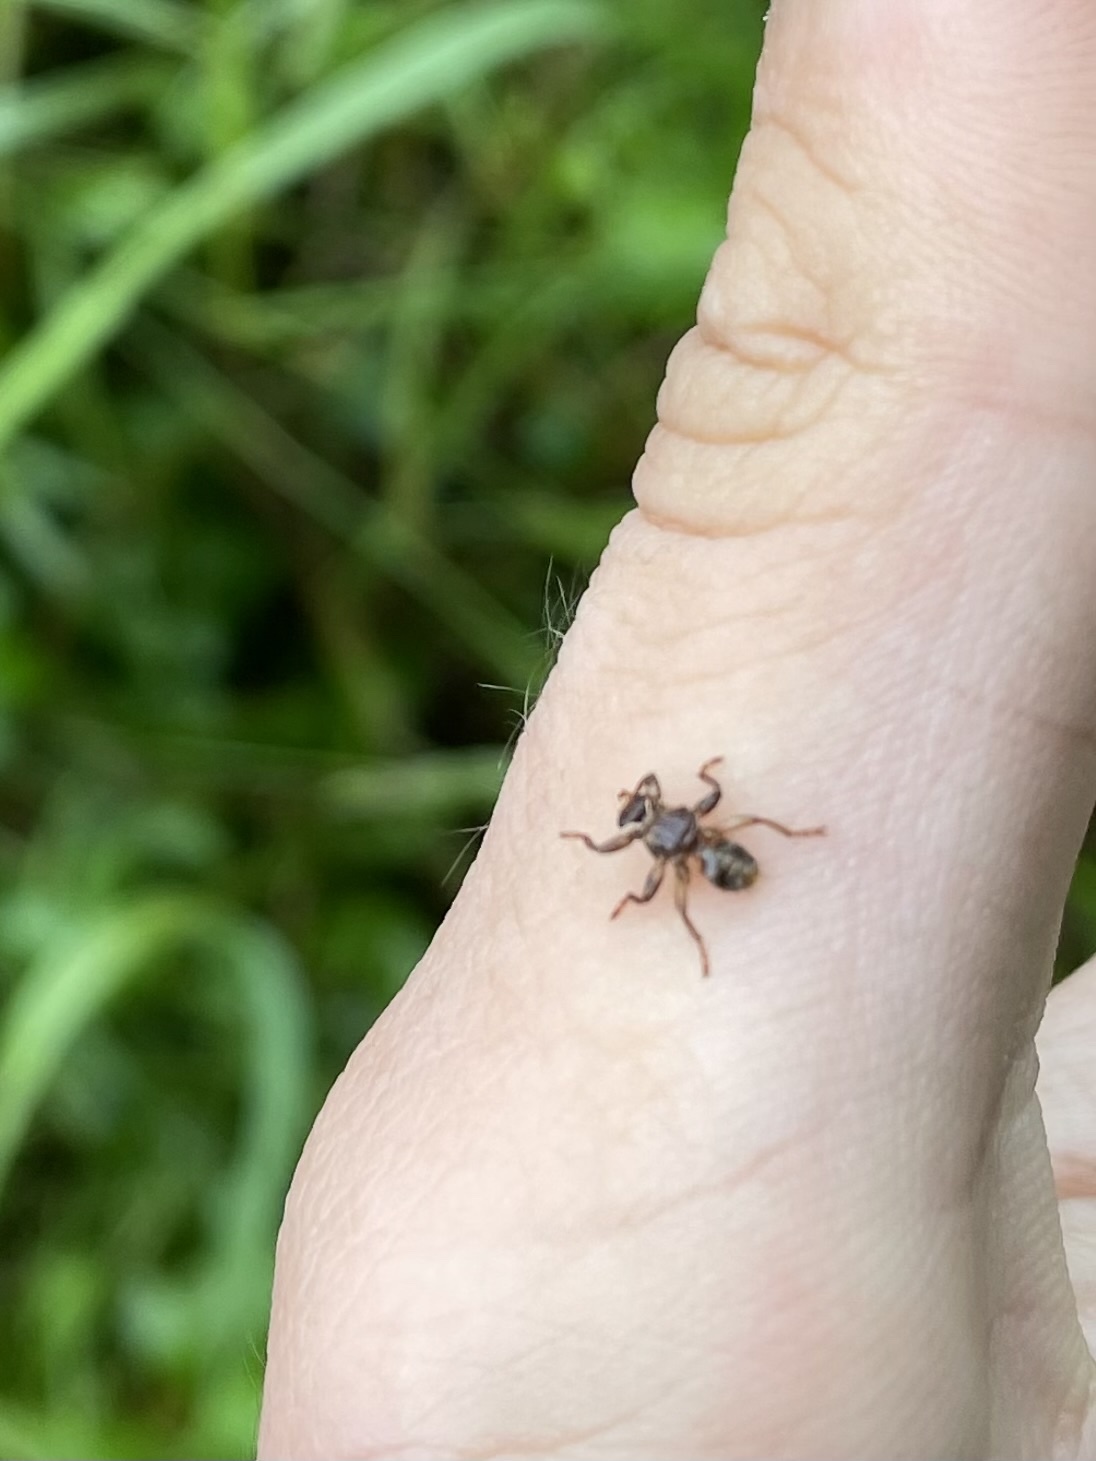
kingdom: Animalia
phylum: Arthropoda
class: Insecta
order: Diptera
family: Hippoboscidae
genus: Lipoptena
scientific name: Lipoptena cervi
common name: Deer ked
